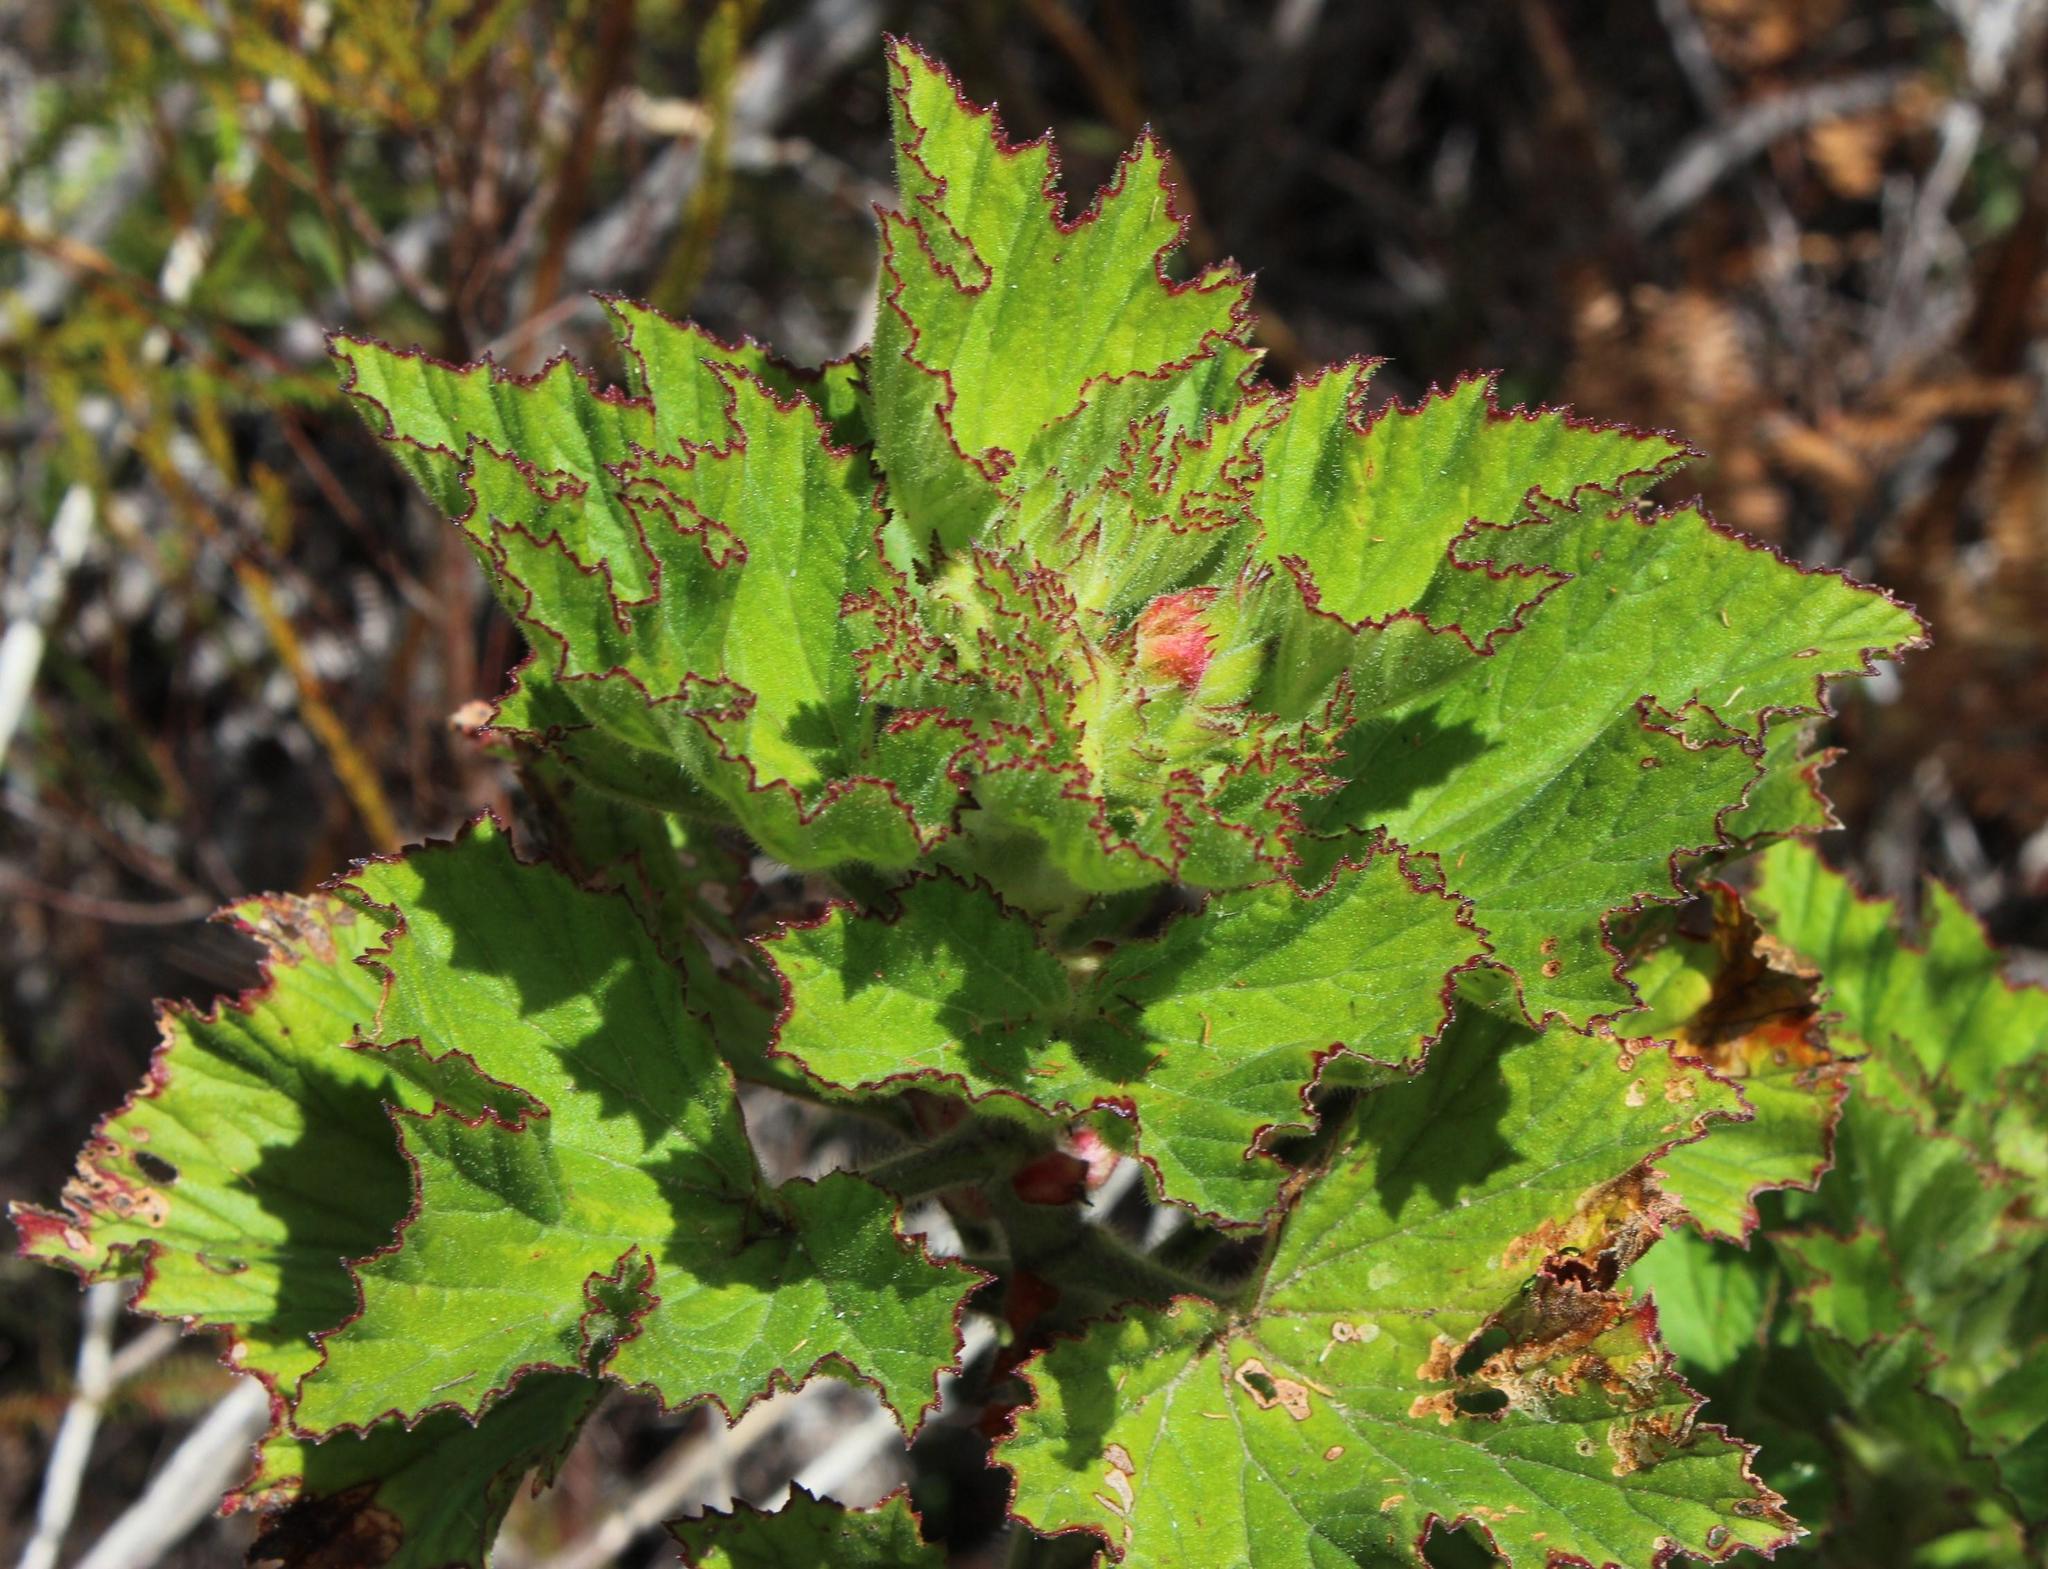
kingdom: Plantae
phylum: Tracheophyta
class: Magnoliopsida
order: Geraniales
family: Geraniaceae
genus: Pelargonium
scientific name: Pelargonium cucullatum
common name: Tree pelargonium
